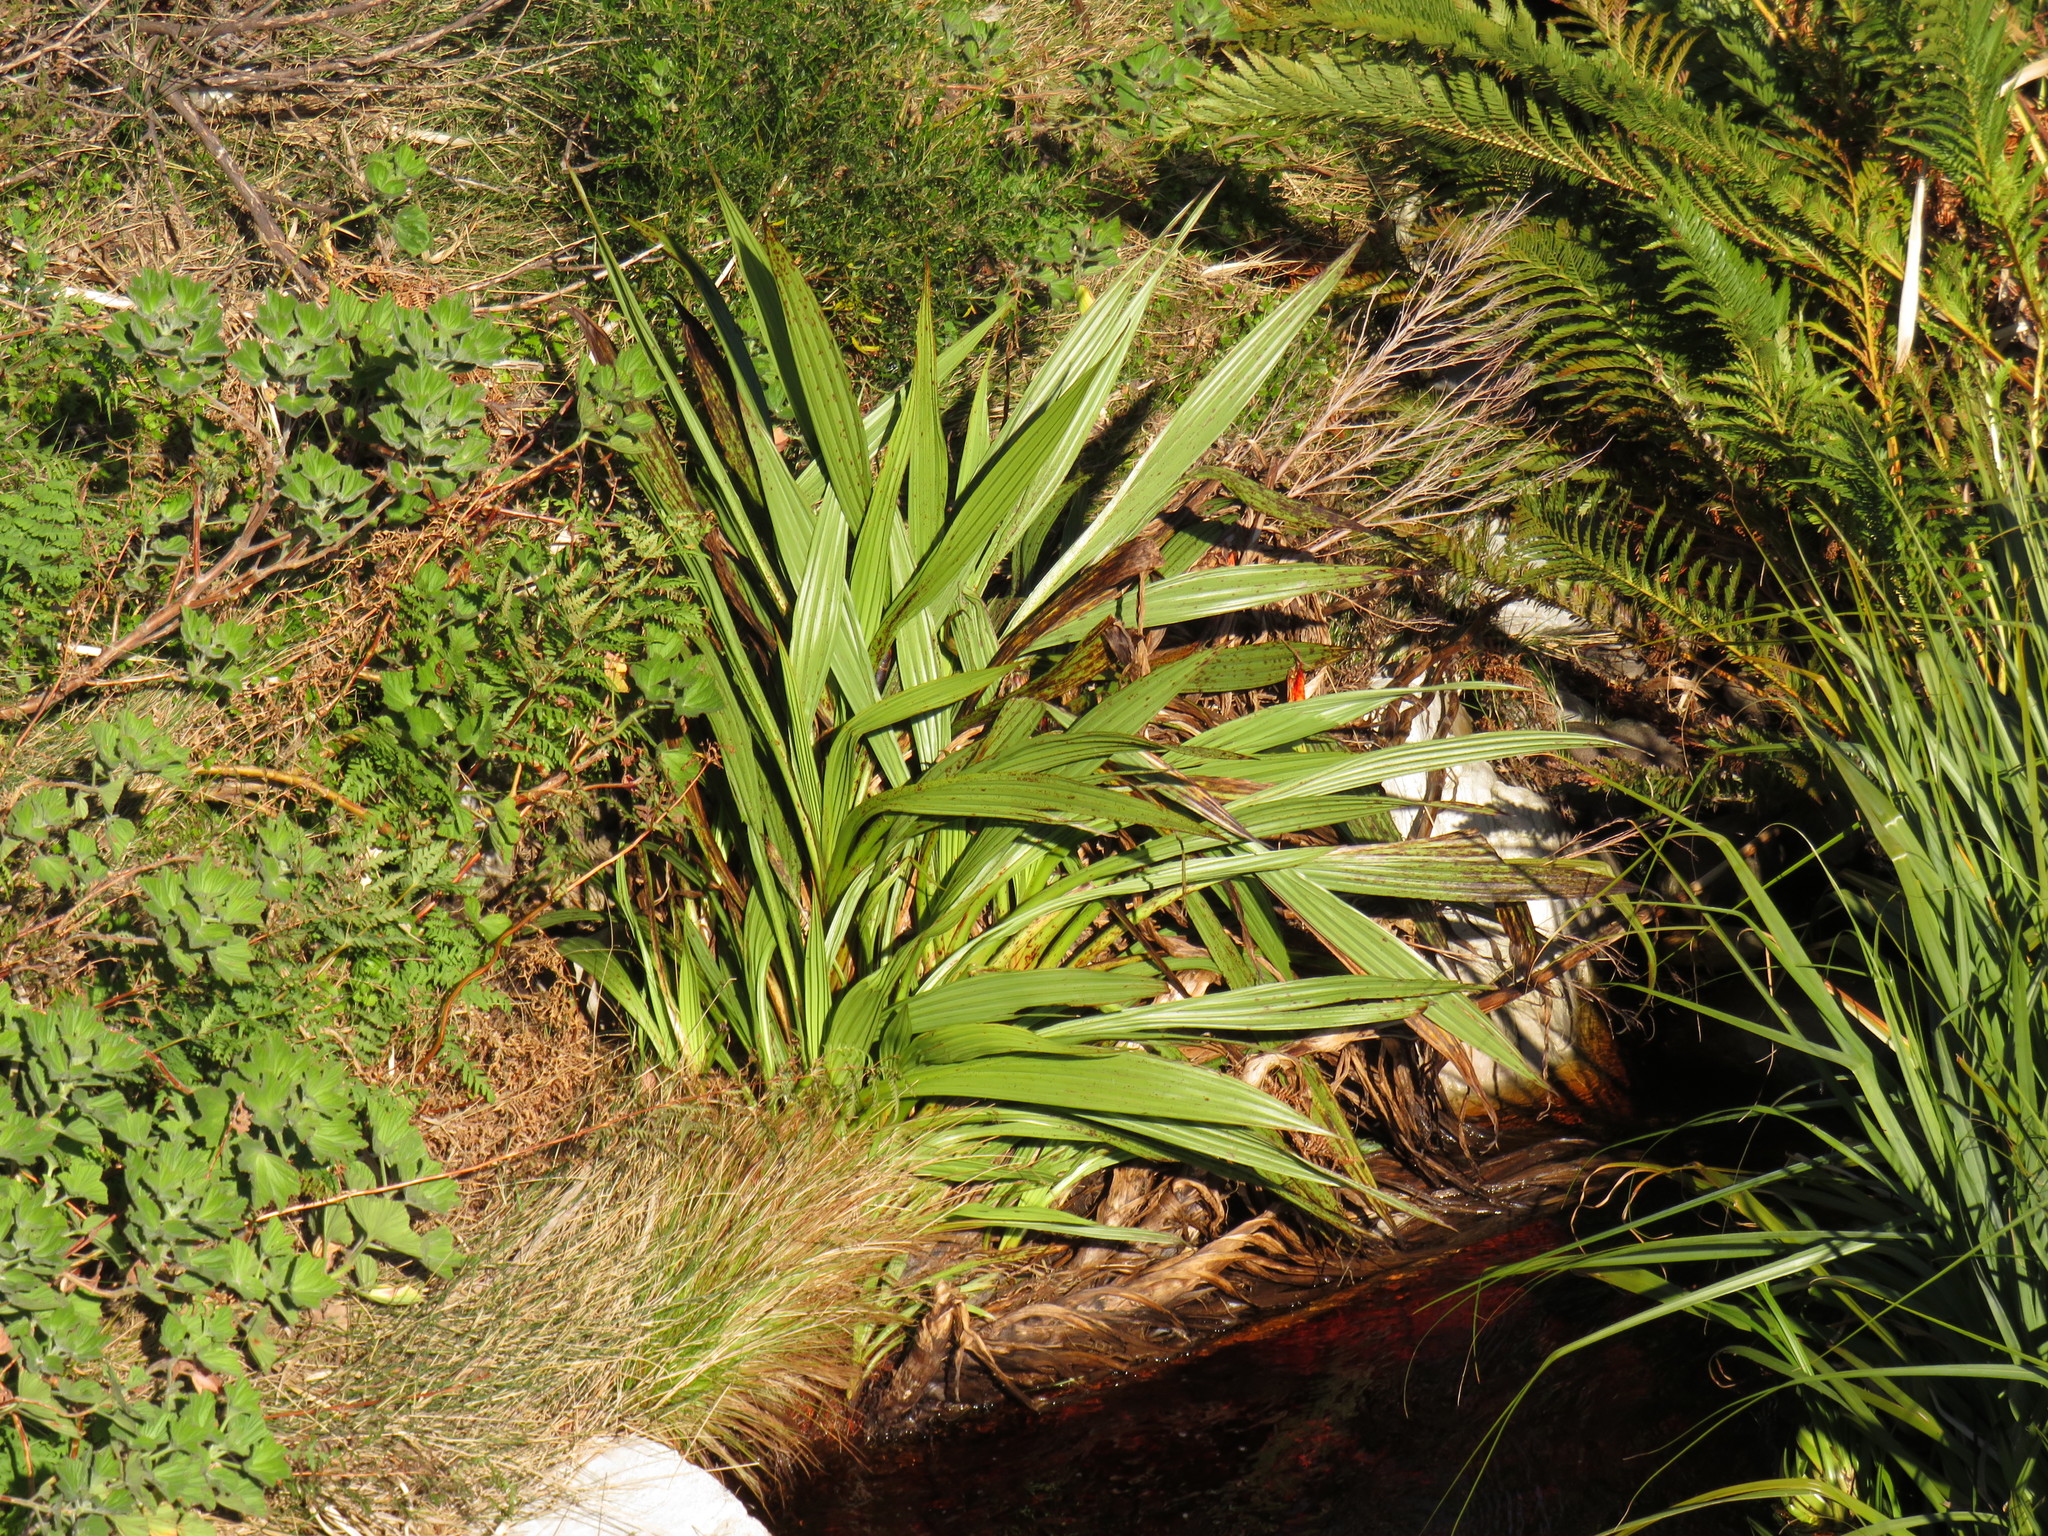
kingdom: Plantae
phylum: Tracheophyta
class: Liliopsida
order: Commelinales
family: Haemodoraceae
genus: Wachendorfia
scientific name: Wachendorfia thyrsiflora
